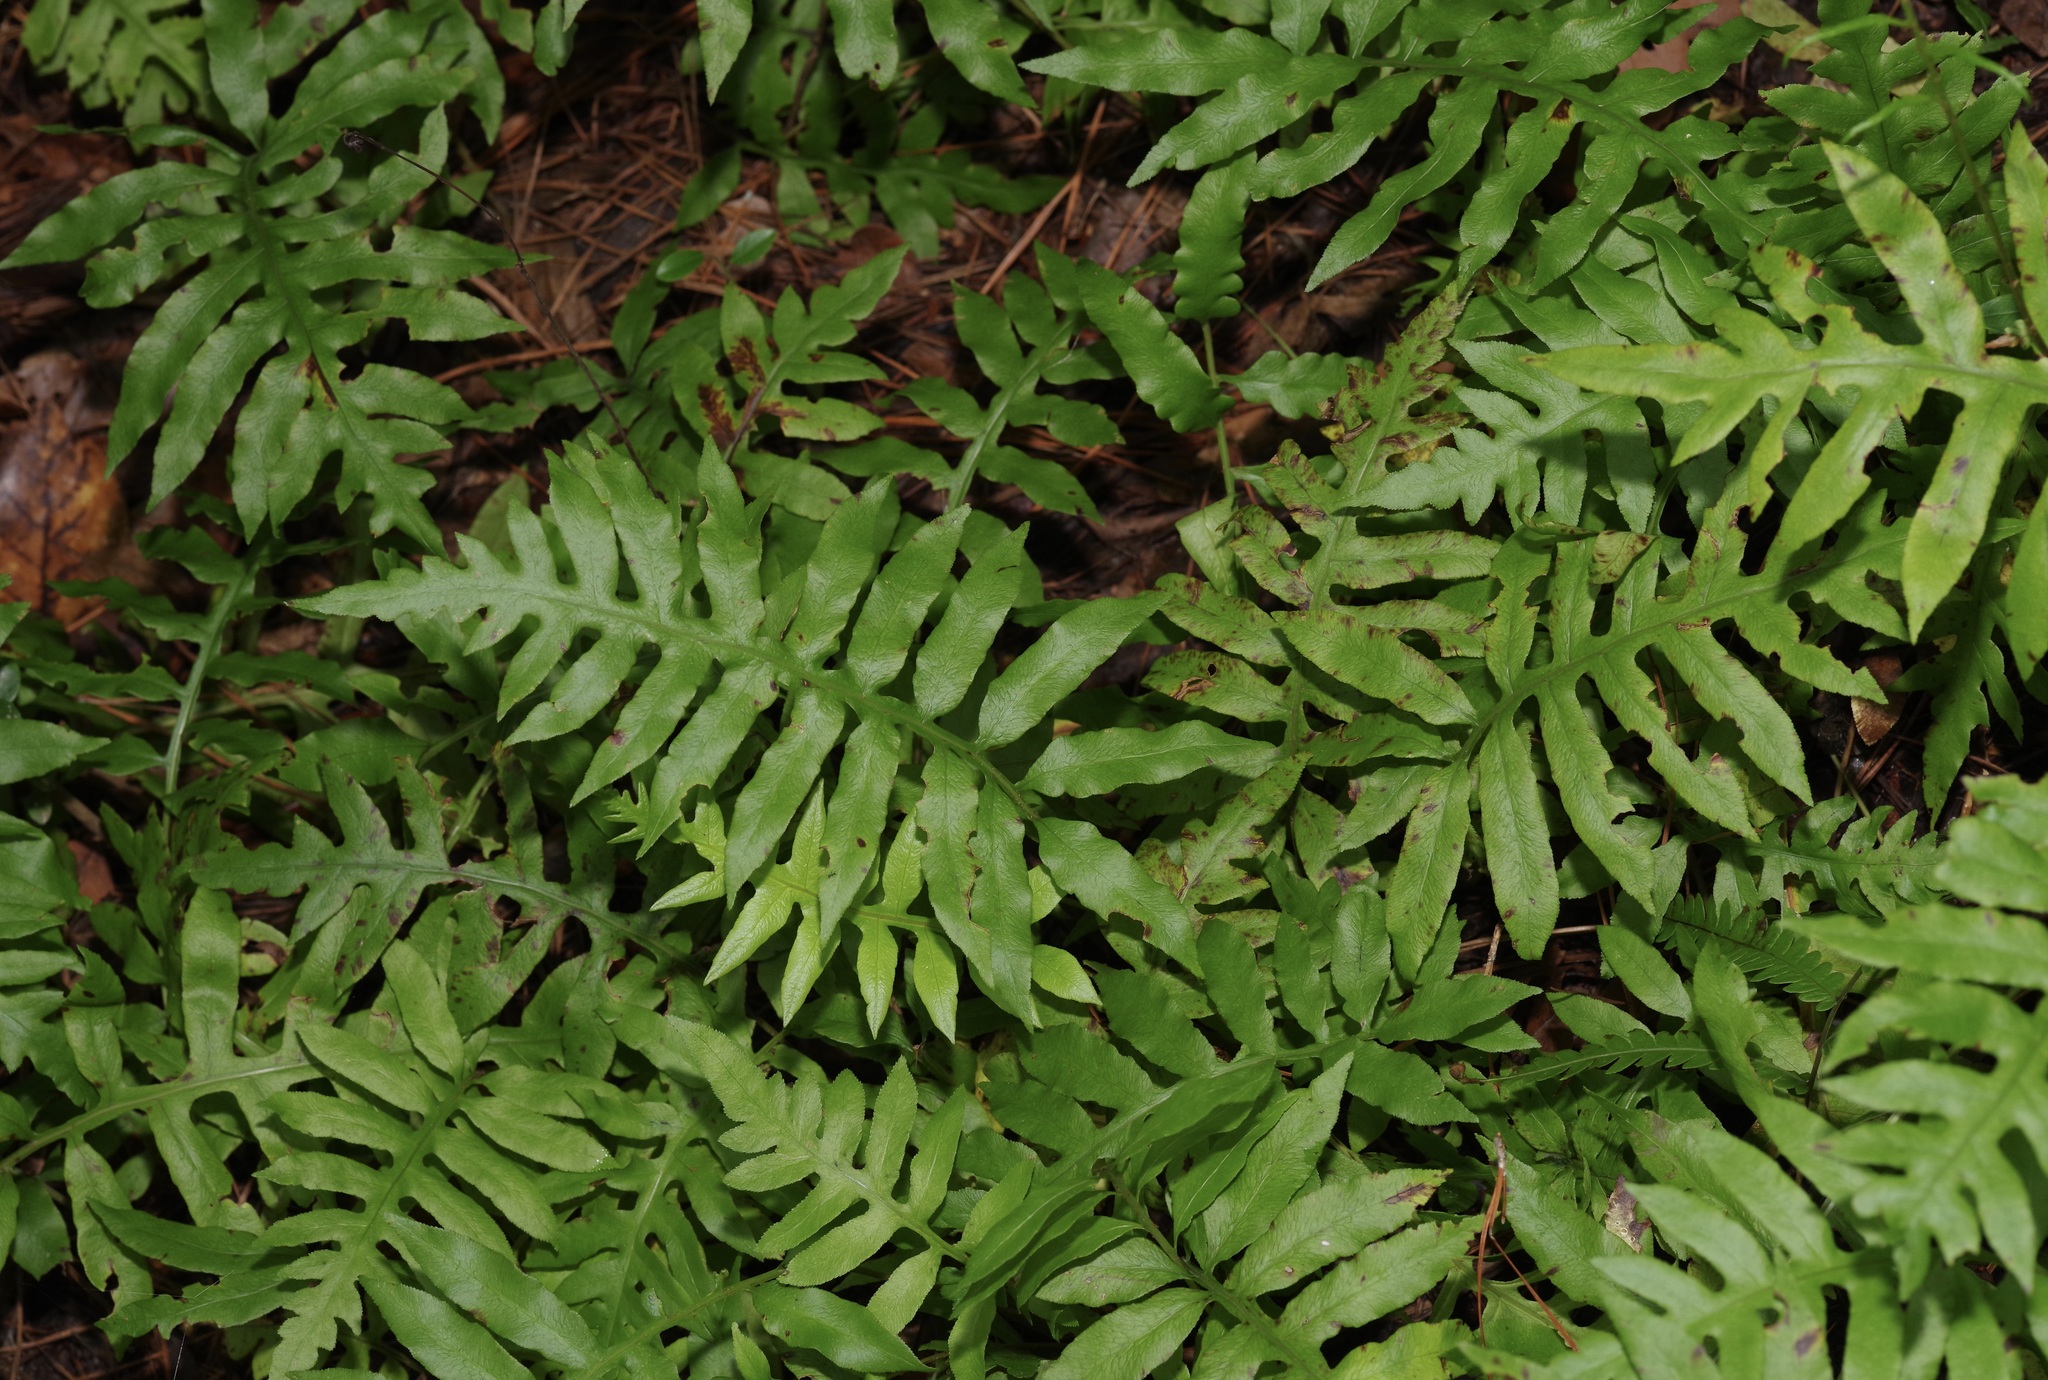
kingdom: Plantae
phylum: Tracheophyta
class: Polypodiopsida
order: Polypodiales
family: Blechnaceae
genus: Lorinseria
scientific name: Lorinseria areolata
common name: Dwarf chain fern
